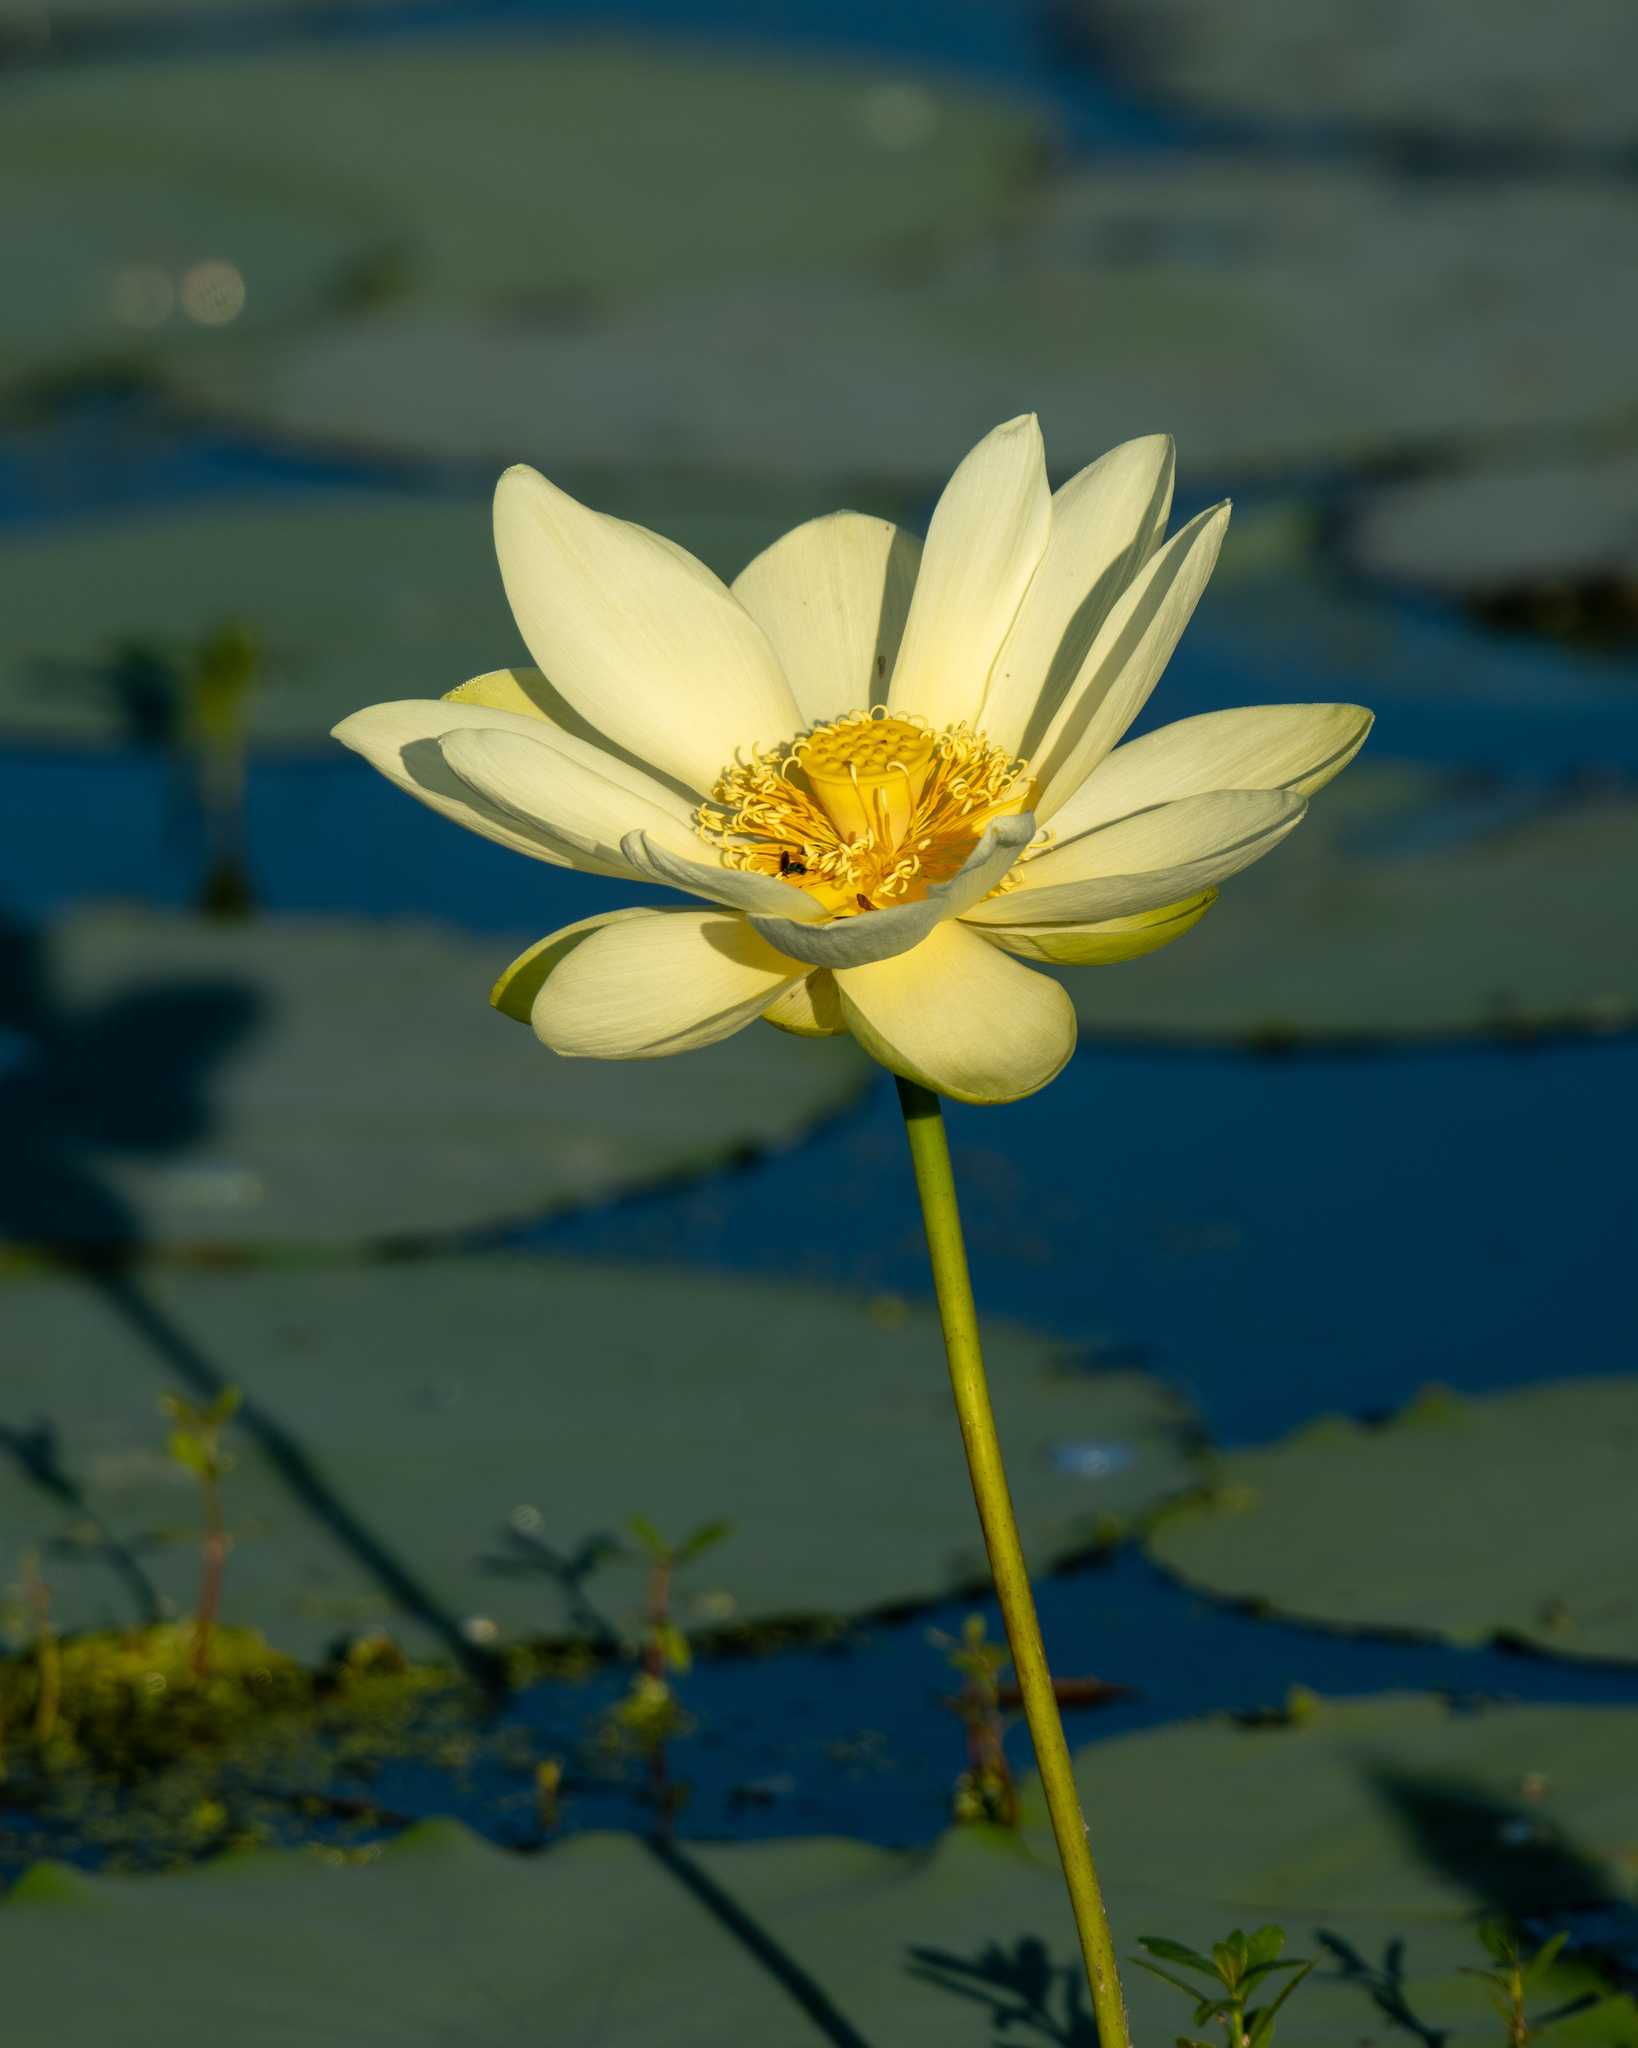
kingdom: Plantae
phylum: Tracheophyta
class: Magnoliopsida
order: Proteales
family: Nelumbonaceae
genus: Nelumbo
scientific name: Nelumbo lutea
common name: American lotus
